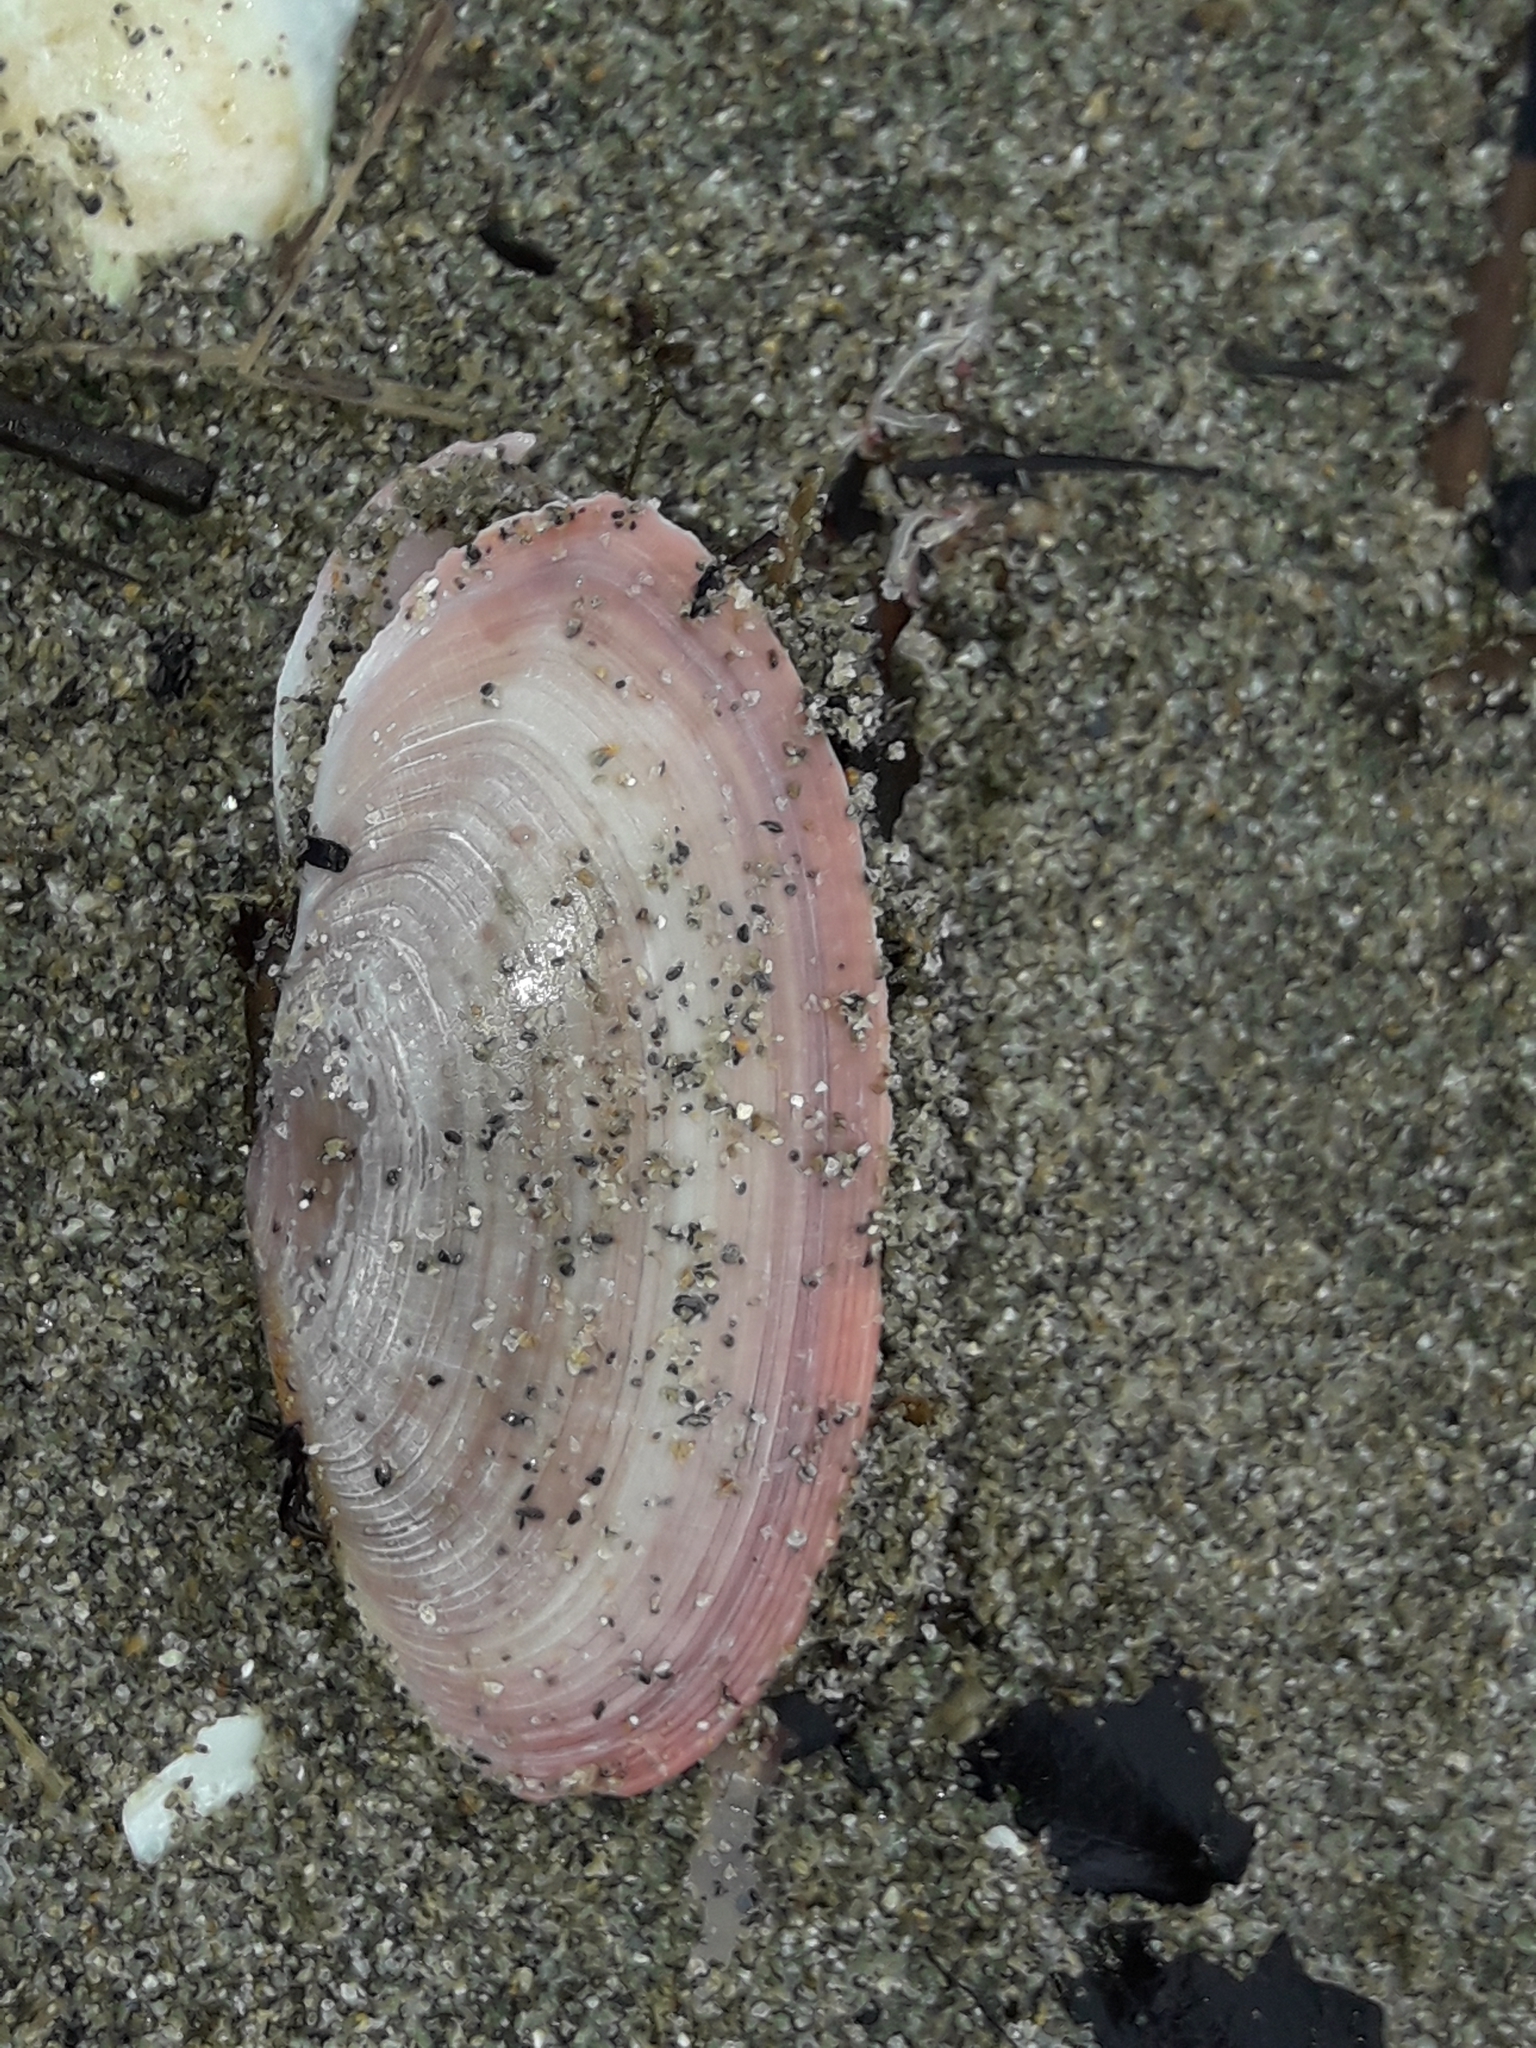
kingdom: Animalia
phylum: Mollusca
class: Bivalvia
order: Cardiida
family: Psammobiidae
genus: Gari
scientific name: Gari lineolata
